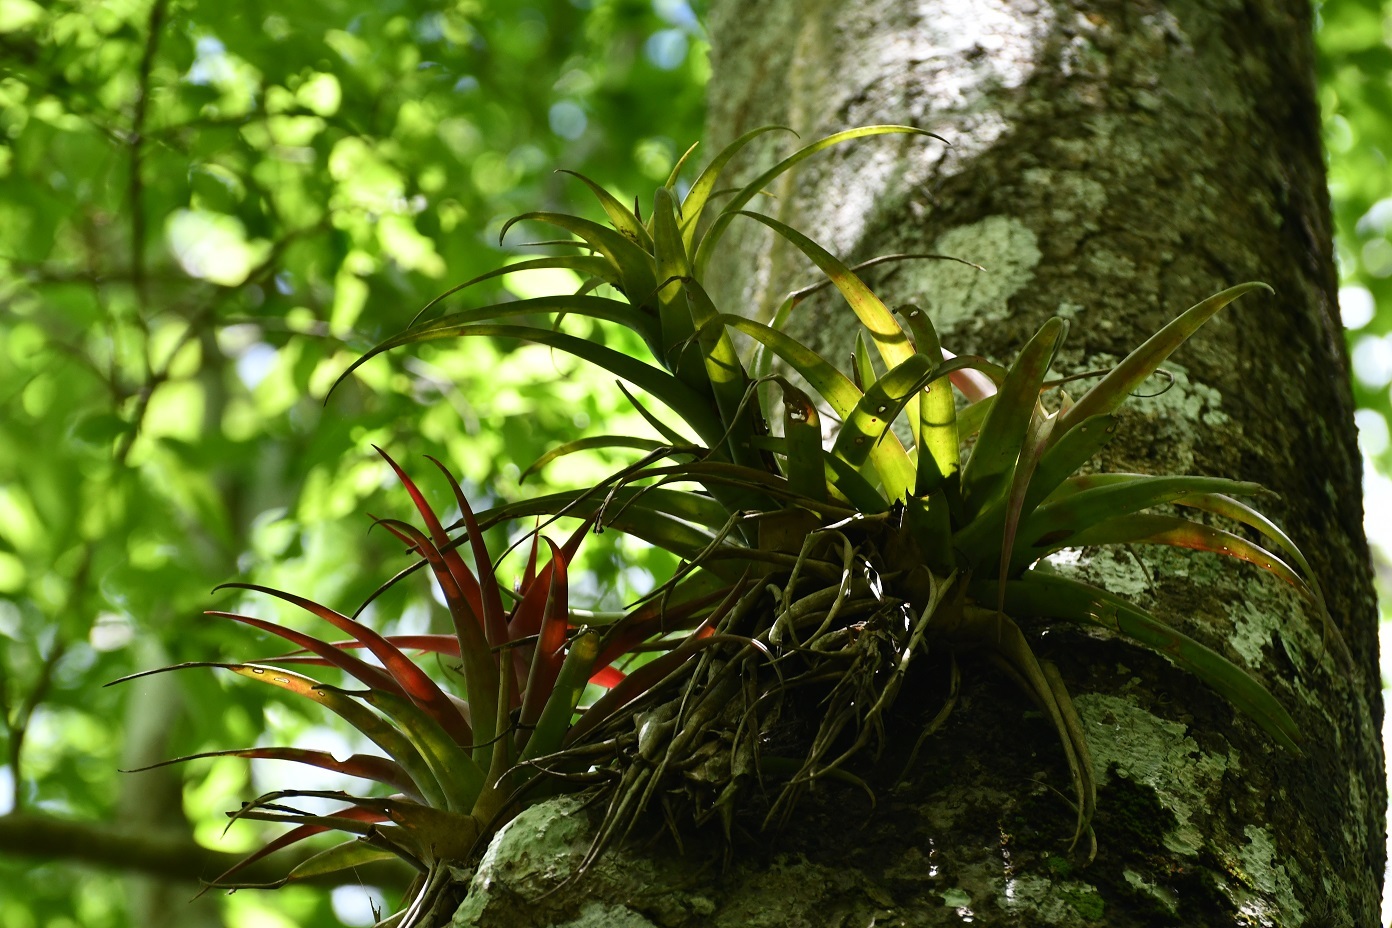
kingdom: Plantae
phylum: Tracheophyta
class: Liliopsida
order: Poales
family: Bromeliaceae
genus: Tillandsia
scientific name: Tillandsia capitata
